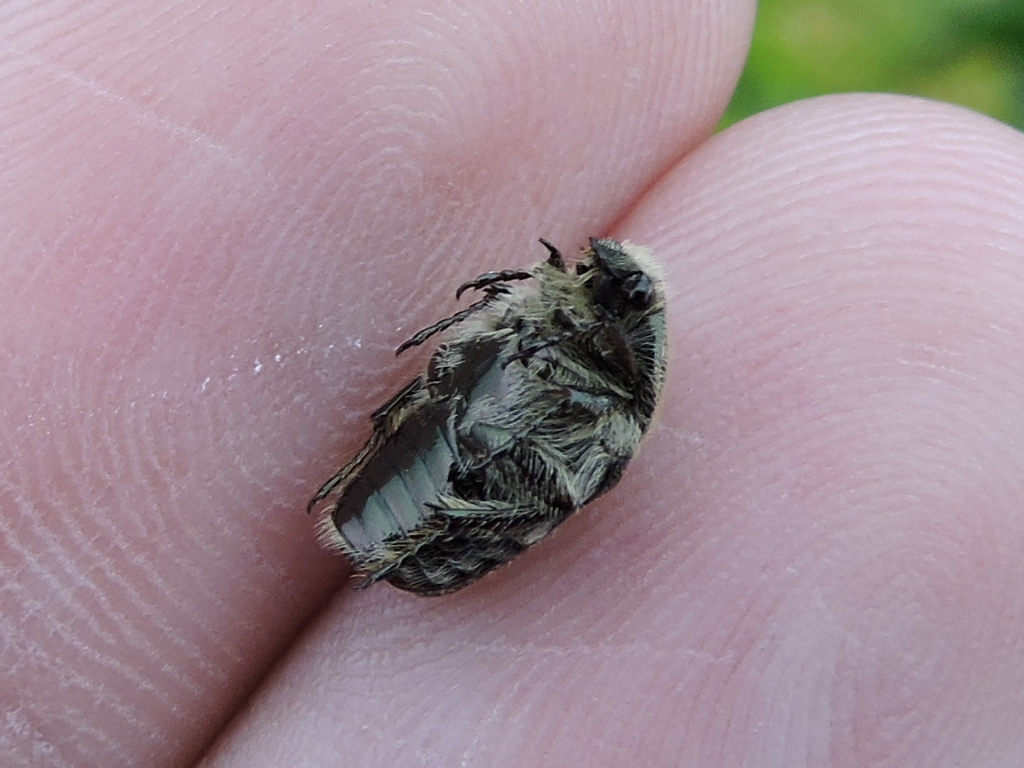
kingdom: Animalia
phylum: Arthropoda
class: Insecta
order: Coleoptera
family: Scarabaeidae
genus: Euphoria
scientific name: Euphoria sepulcralis
